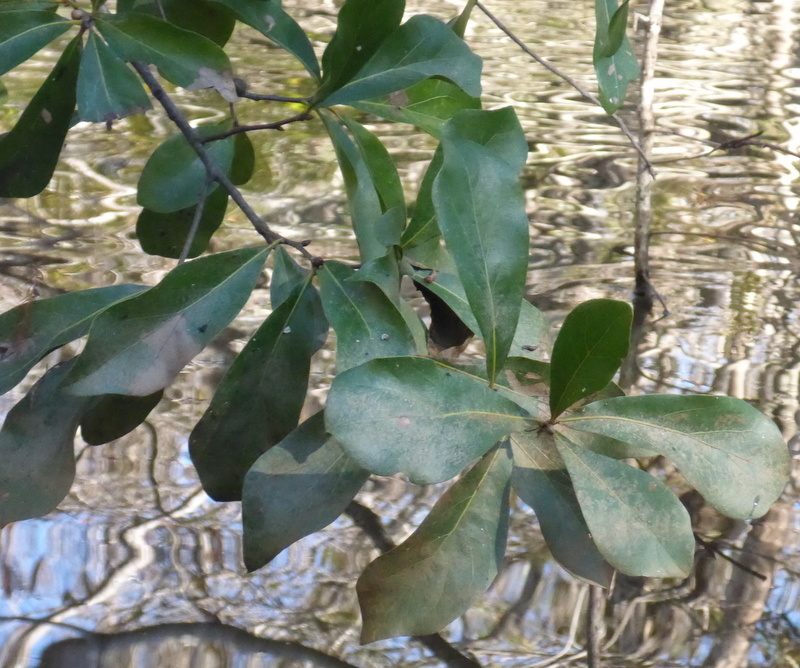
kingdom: Plantae
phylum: Tracheophyta
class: Magnoliopsida
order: Fagales
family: Fagaceae
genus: Quercus
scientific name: Quercus nigra
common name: Water oak
